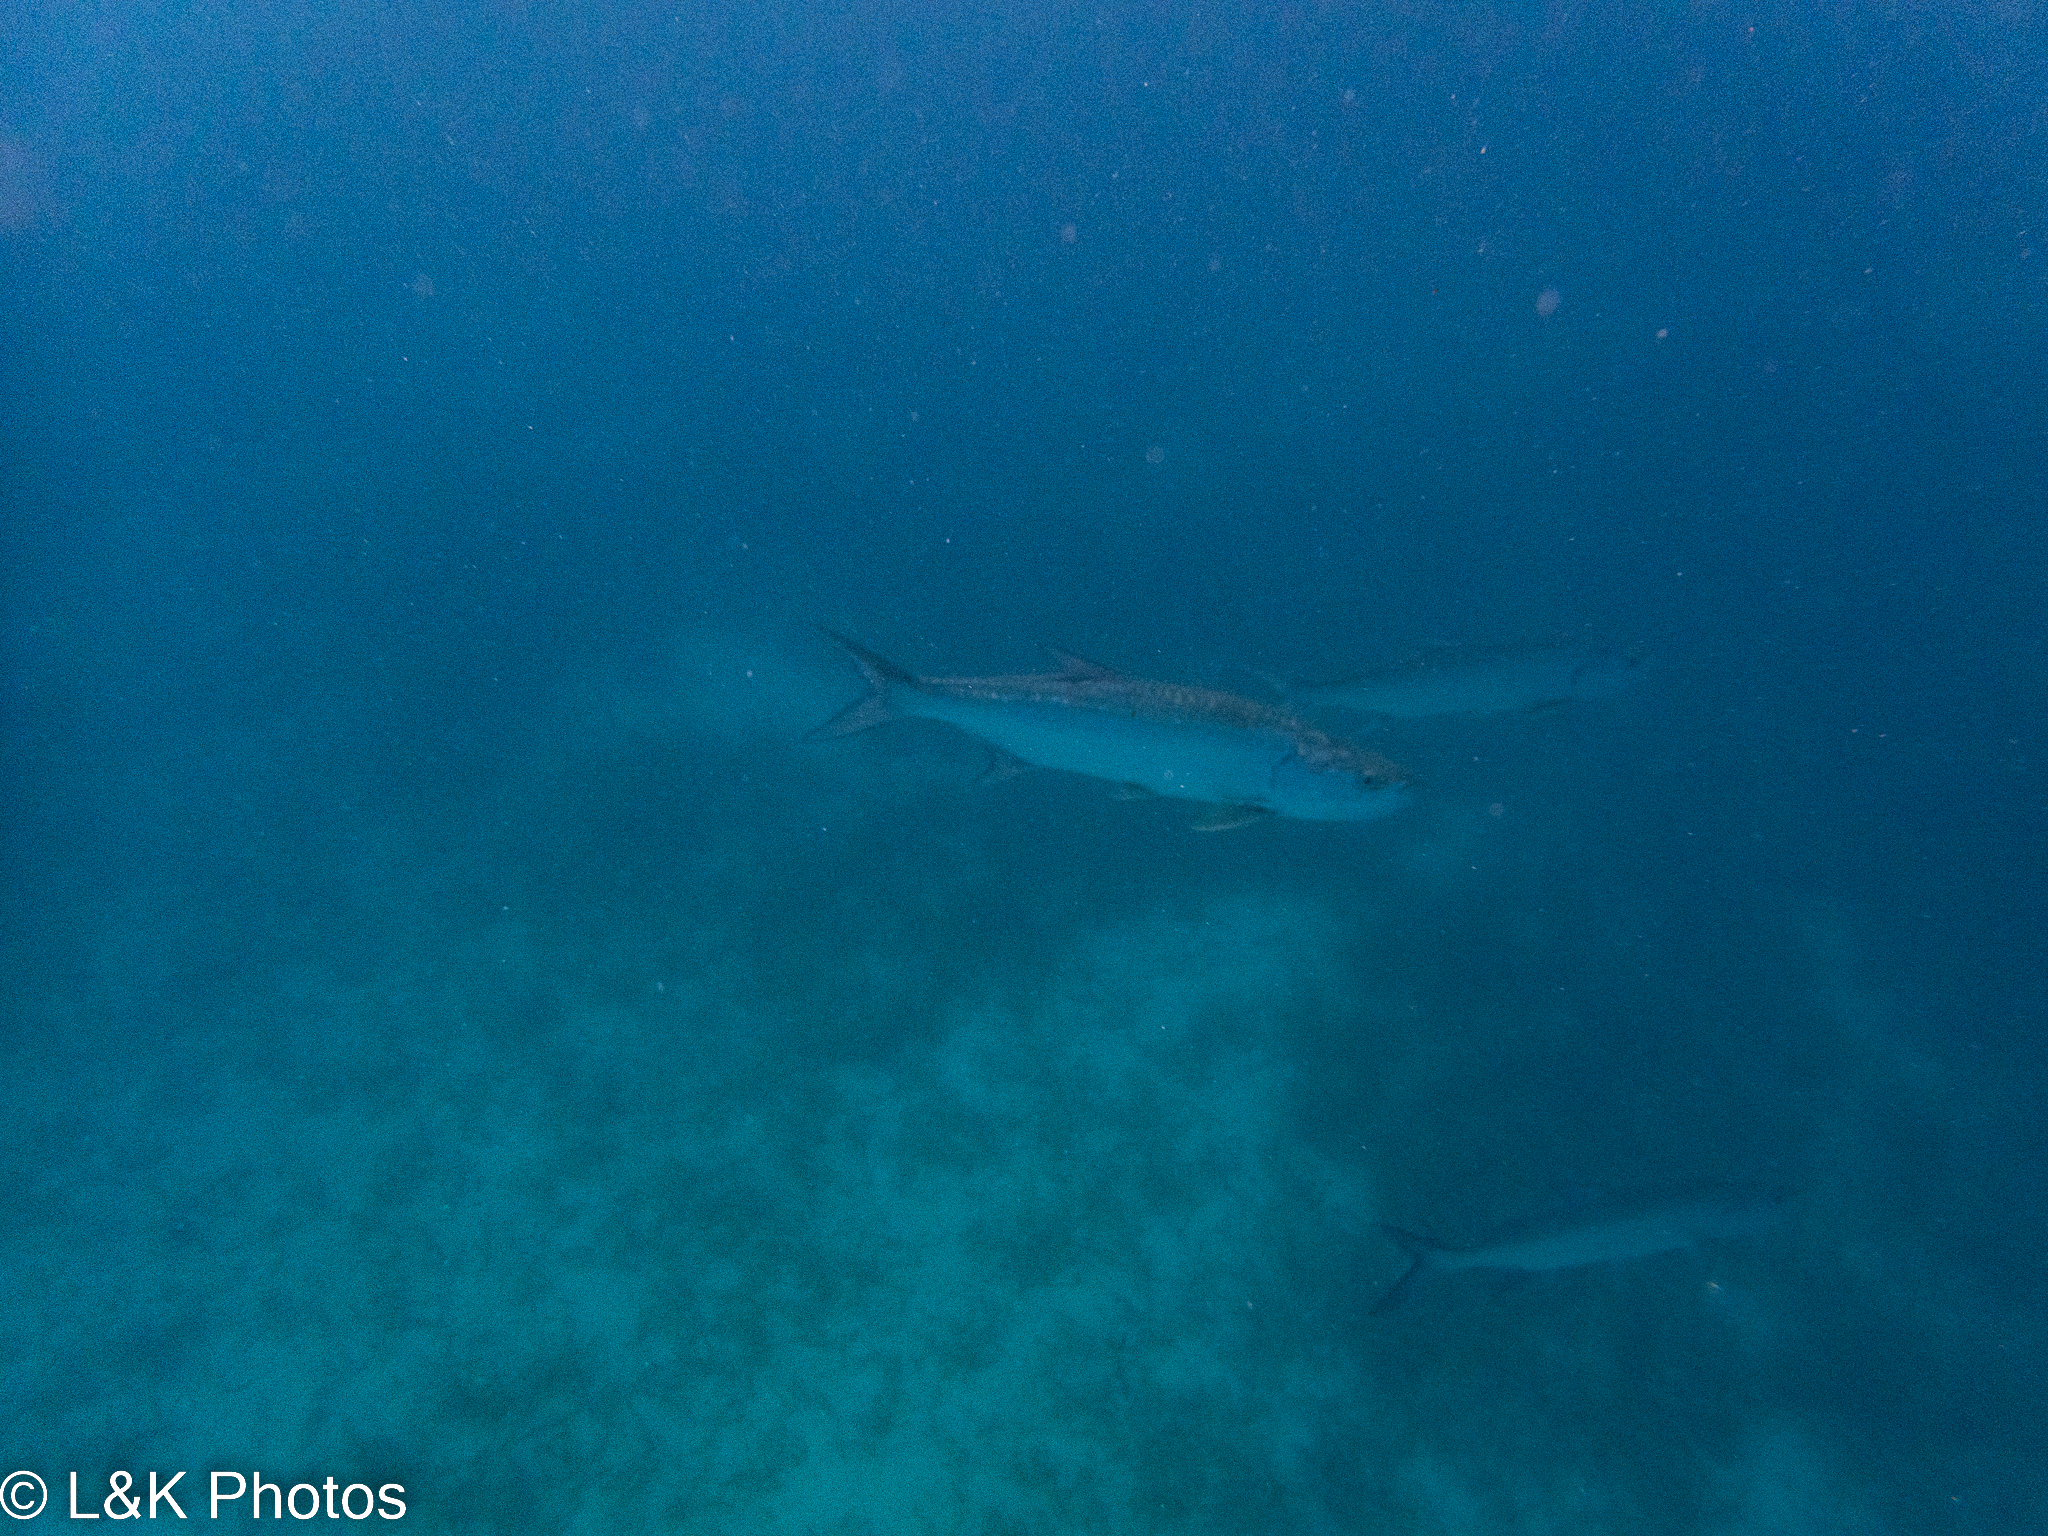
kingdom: Animalia
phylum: Chordata
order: Elopiformes
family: Megalopidae
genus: Megalops
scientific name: Megalops atlanticus
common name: Tarpon
